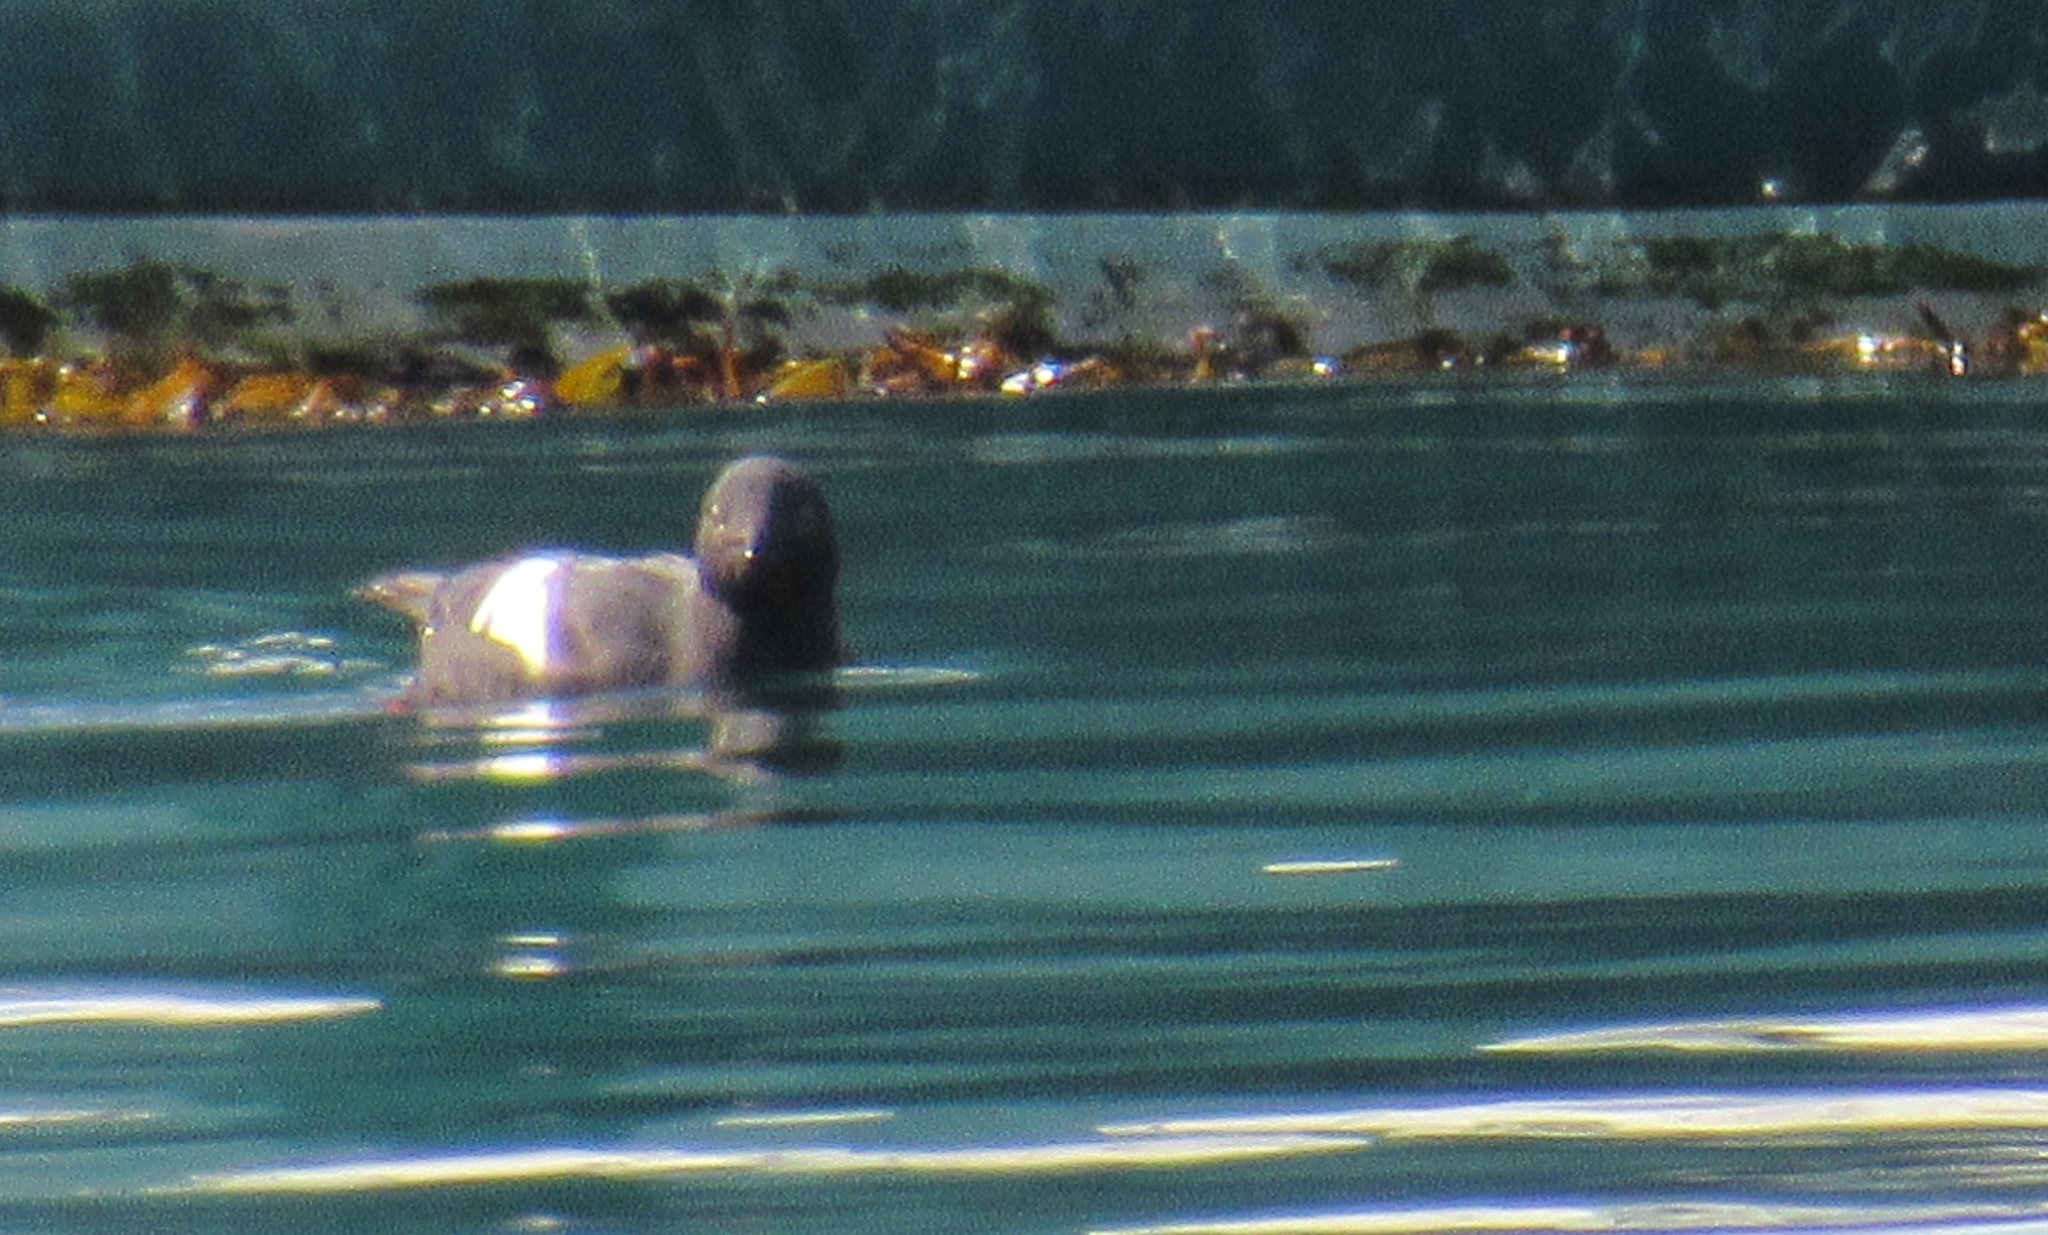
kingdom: Animalia
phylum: Chordata
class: Aves
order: Charadriiformes
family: Alcidae
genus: Cepphus
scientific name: Cepphus columba
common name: Pigeon guillemot
